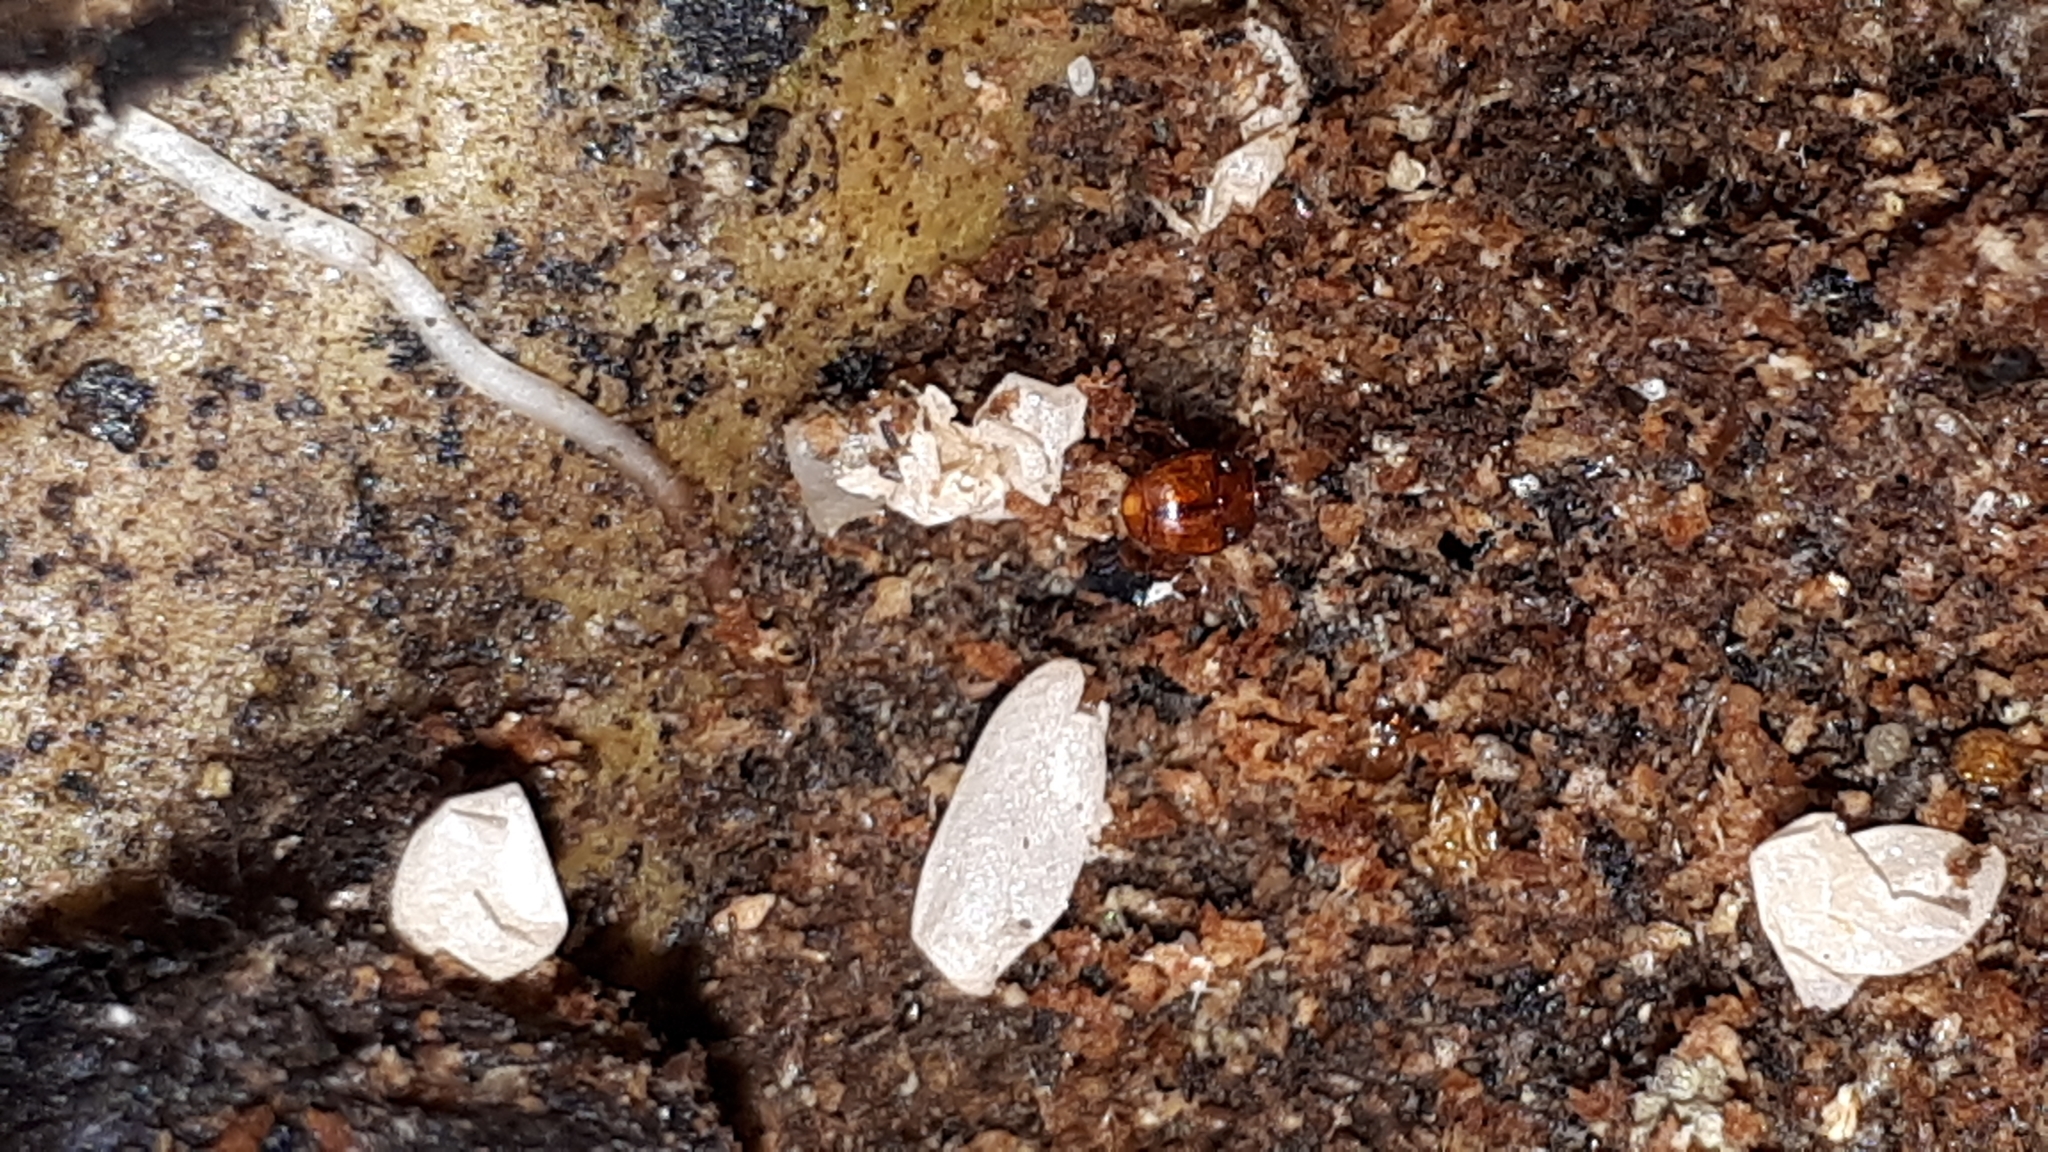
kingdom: Animalia
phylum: Arthropoda
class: Insecta
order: Coleoptera
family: Histeridae
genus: Haeterius
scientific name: Haeterius ferrugineus
